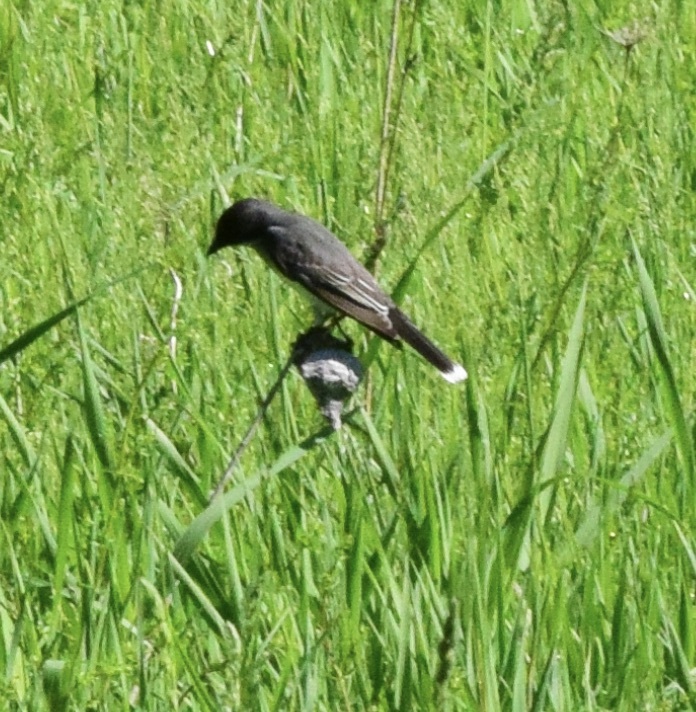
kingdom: Animalia
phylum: Chordata
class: Aves
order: Passeriformes
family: Tyrannidae
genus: Tyrannus
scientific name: Tyrannus tyrannus
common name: Eastern kingbird
